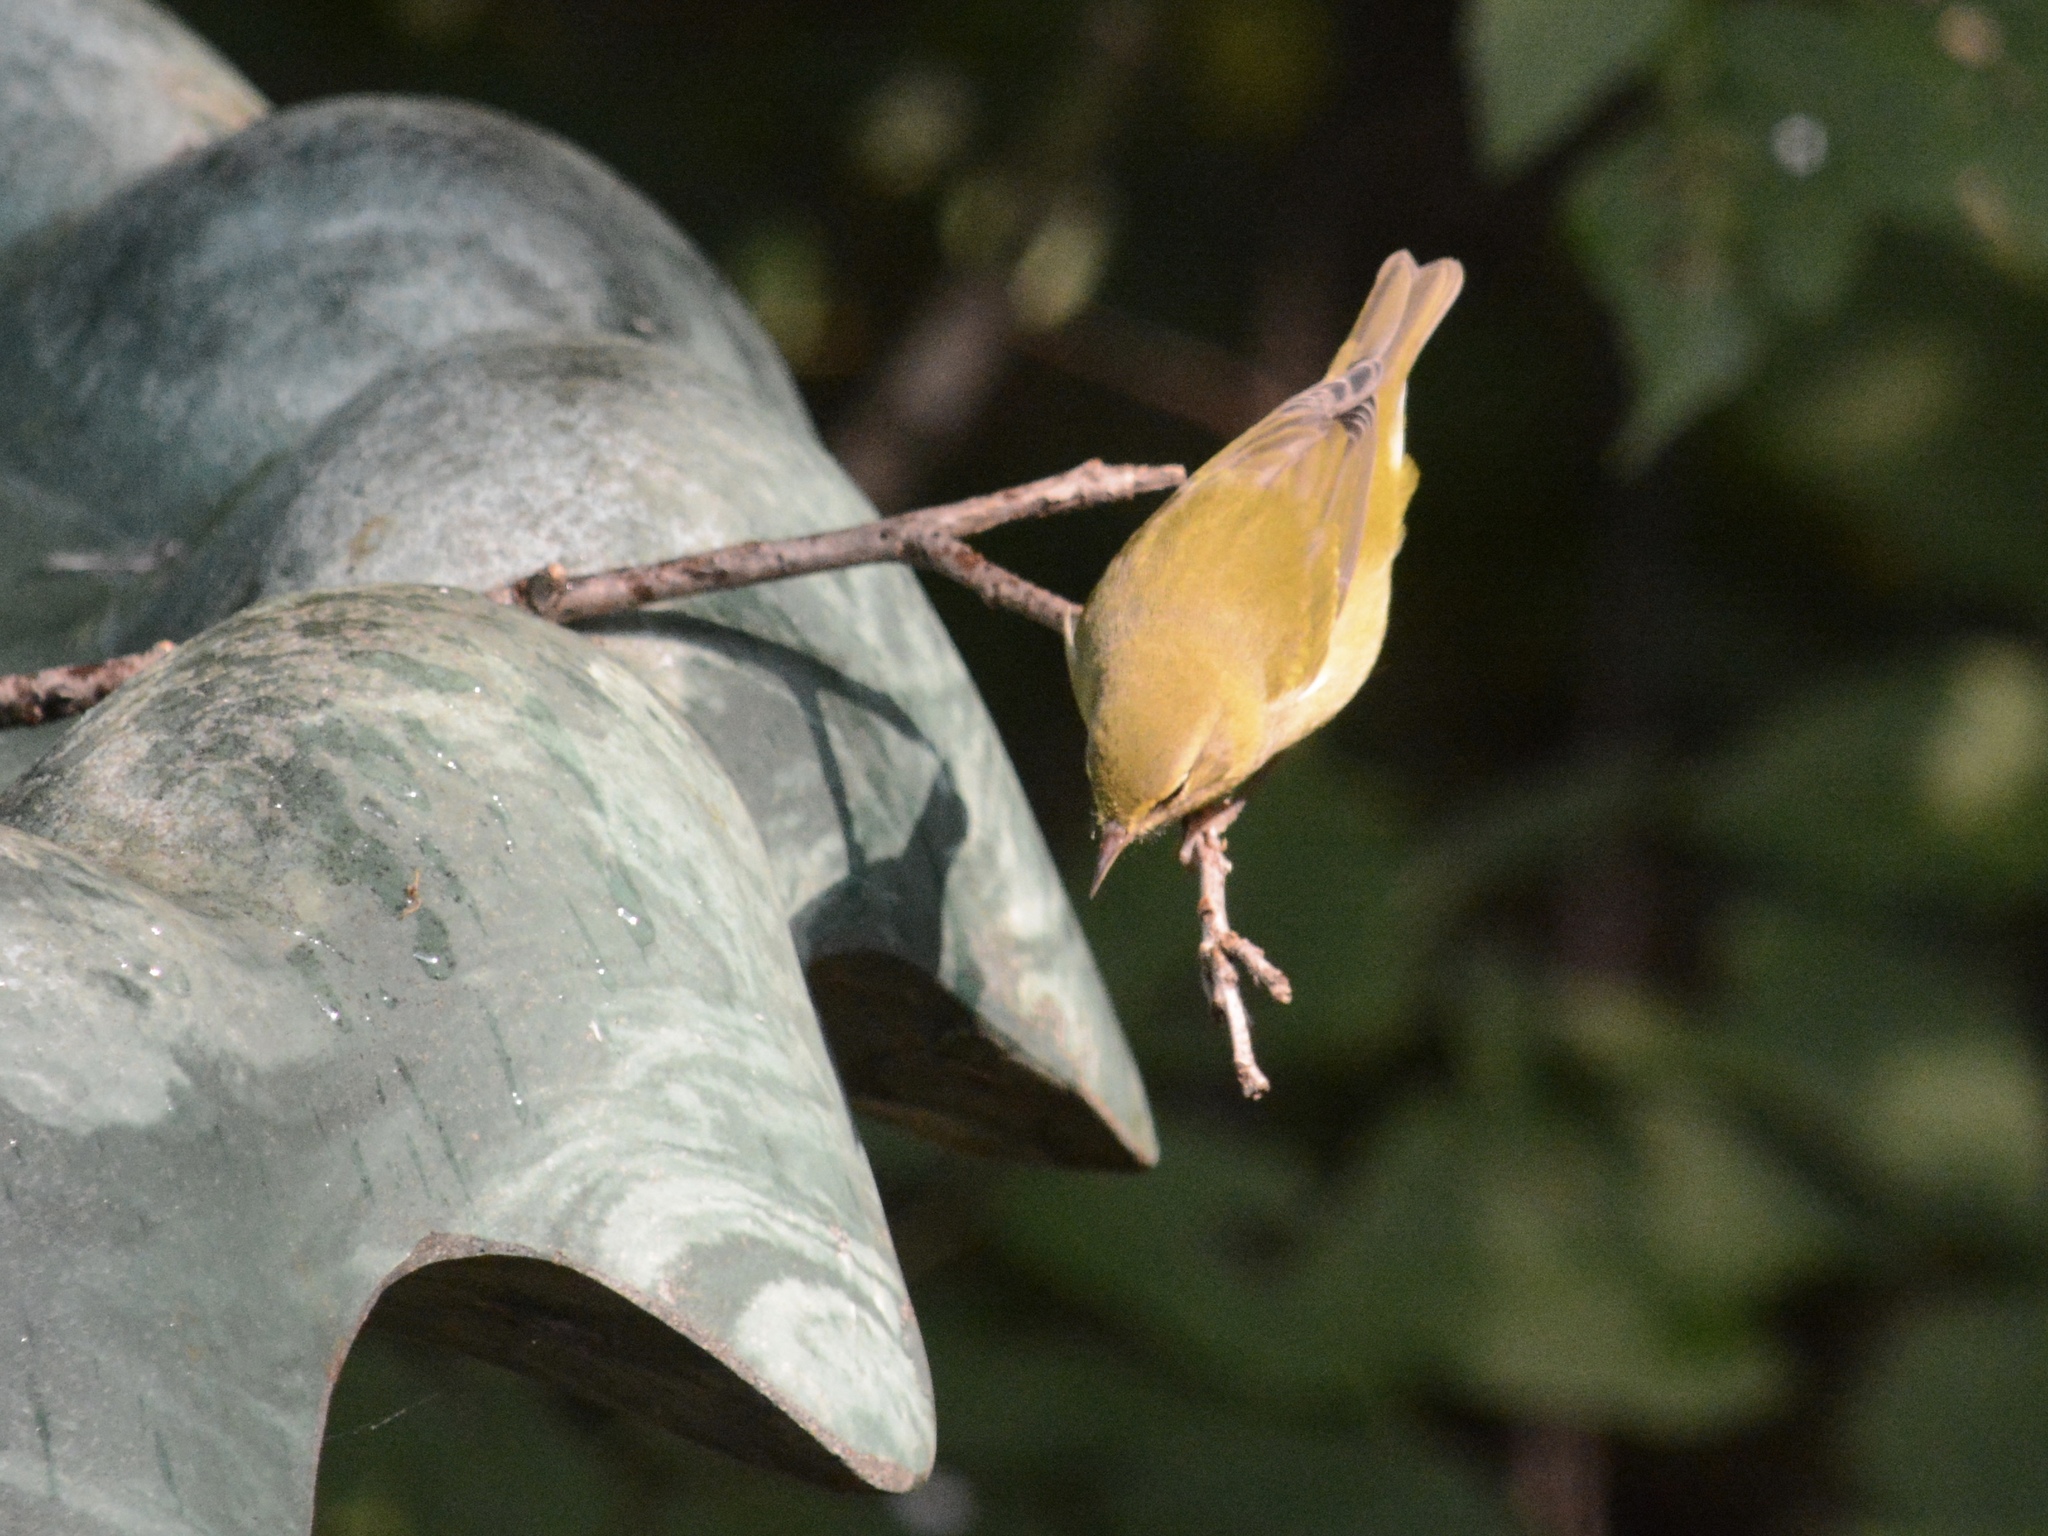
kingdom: Animalia
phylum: Chordata
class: Aves
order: Passeriformes
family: Parulidae
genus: Leiothlypis
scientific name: Leiothlypis peregrina
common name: Tennessee warbler
